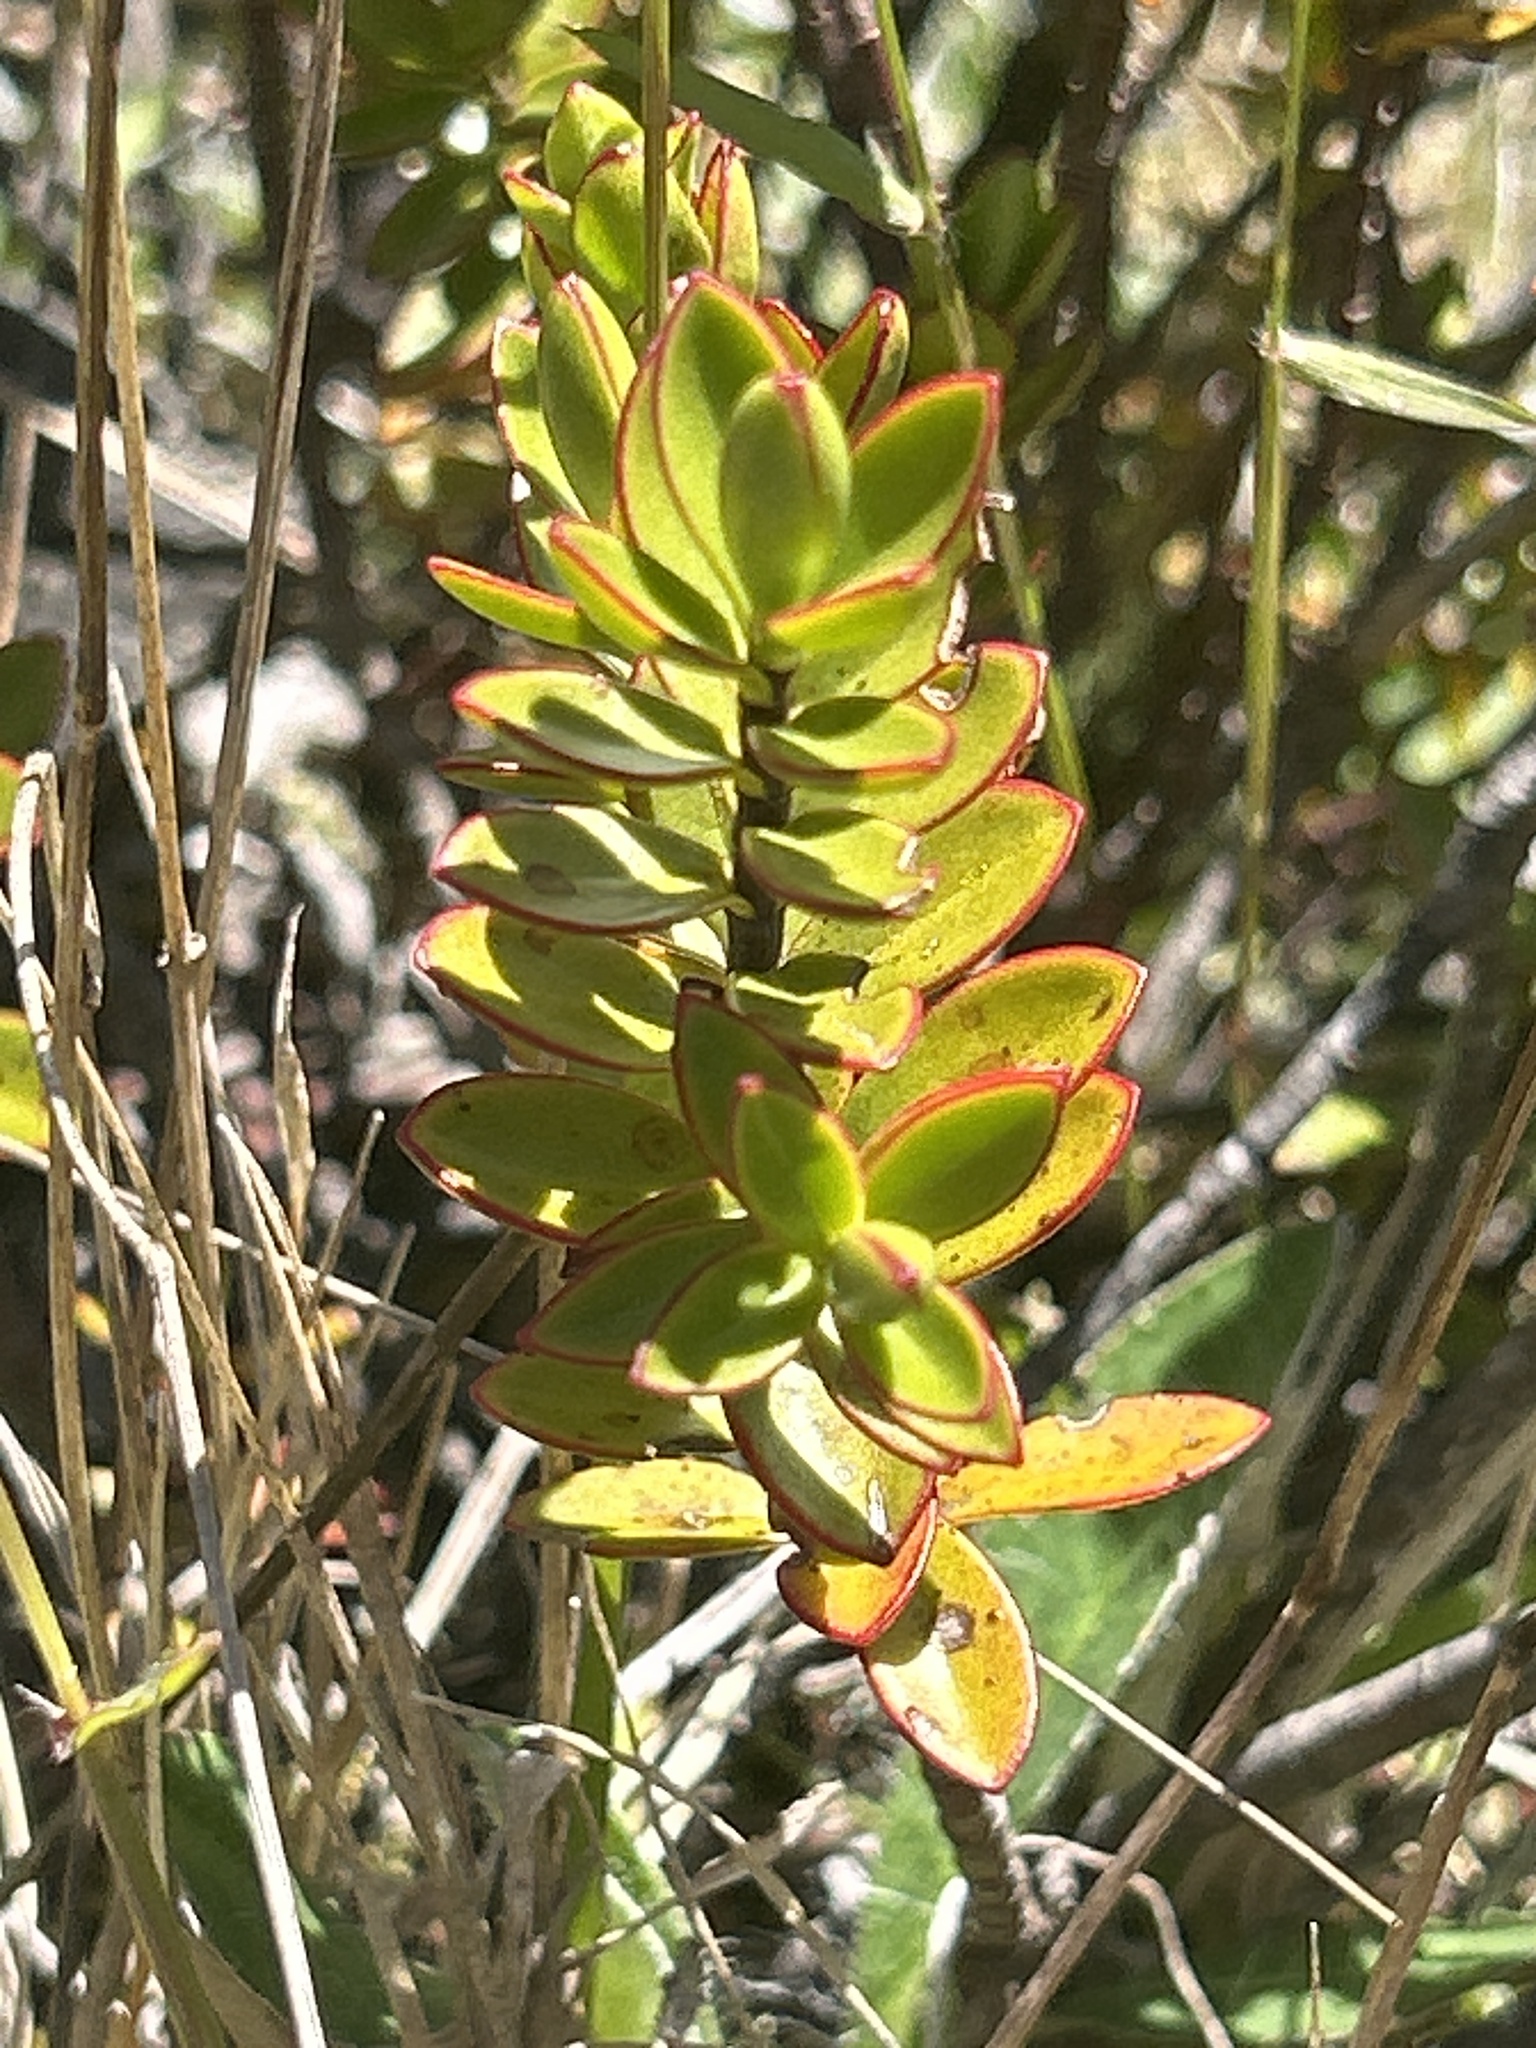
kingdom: Plantae
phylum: Tracheophyta
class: Magnoliopsida
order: Lamiales
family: Plantaginaceae
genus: Veronica
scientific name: Veronica decumbens
